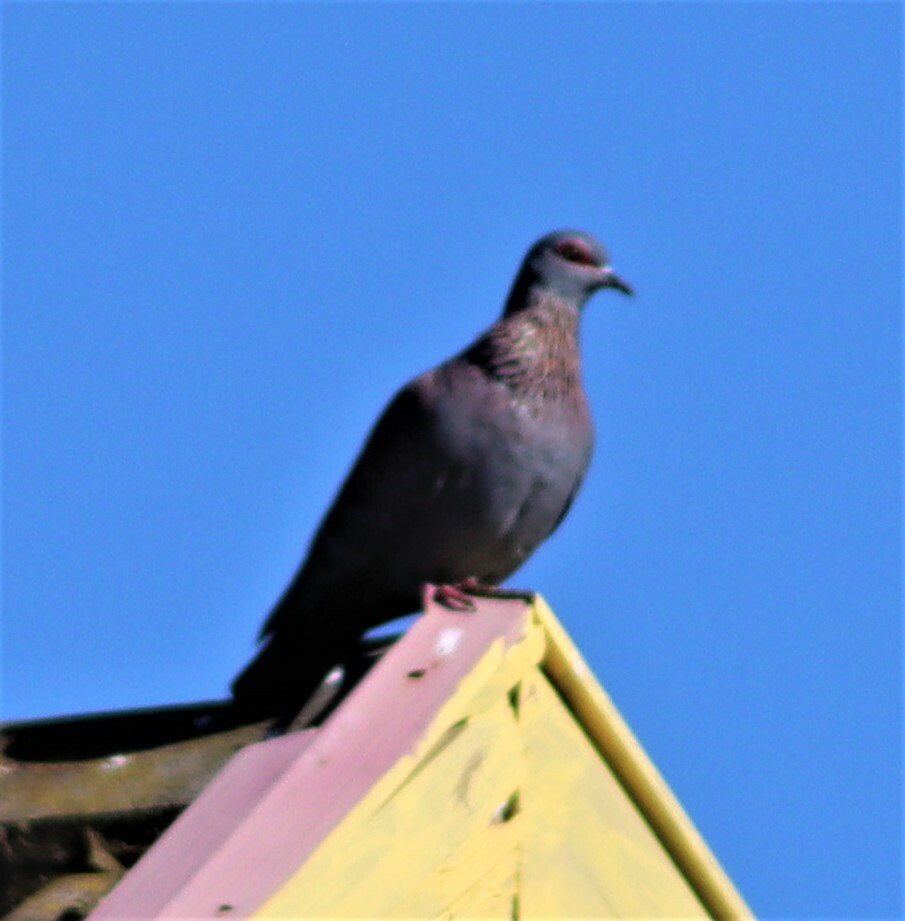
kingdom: Animalia
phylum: Chordata
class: Aves
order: Columbiformes
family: Columbidae
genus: Columba
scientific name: Columba guinea
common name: Speckled pigeon
